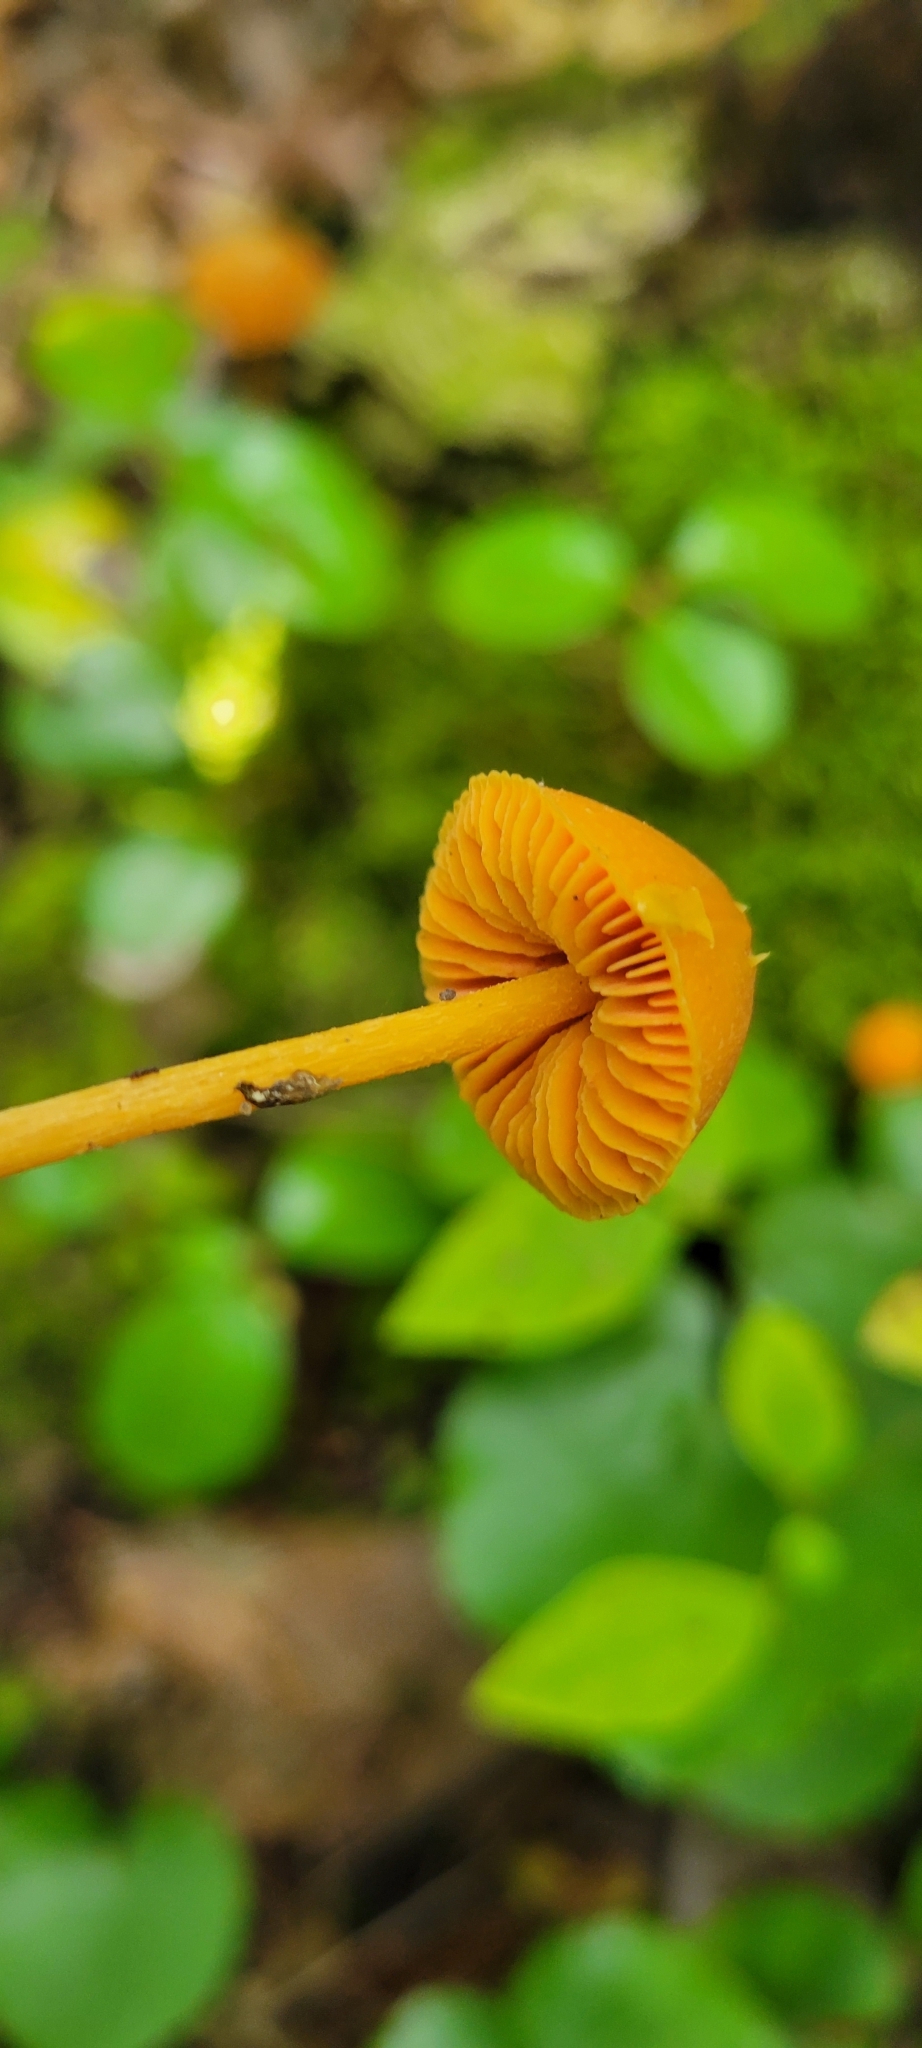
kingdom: Fungi
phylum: Basidiomycota
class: Agaricomycetes
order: Agaricales
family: Entolomataceae
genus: Entoloma
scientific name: Entoloma quadratum
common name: Salmon pinkgill
